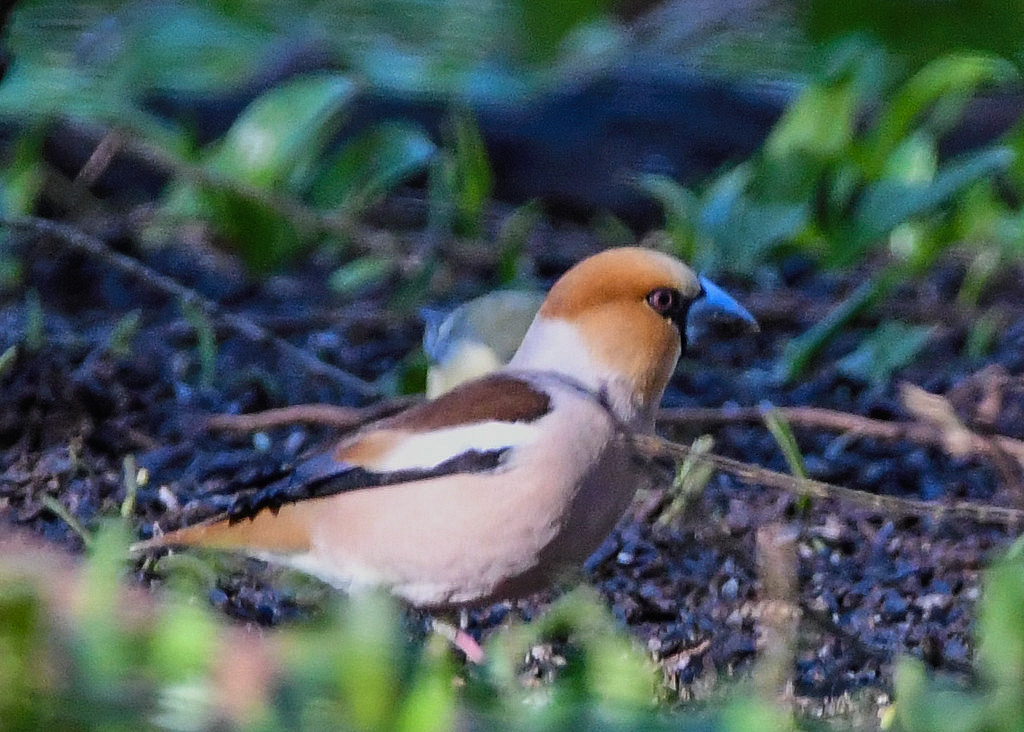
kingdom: Animalia
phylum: Chordata
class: Aves
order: Passeriformes
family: Fringillidae
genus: Coccothraustes
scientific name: Coccothraustes coccothraustes
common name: Hawfinch
